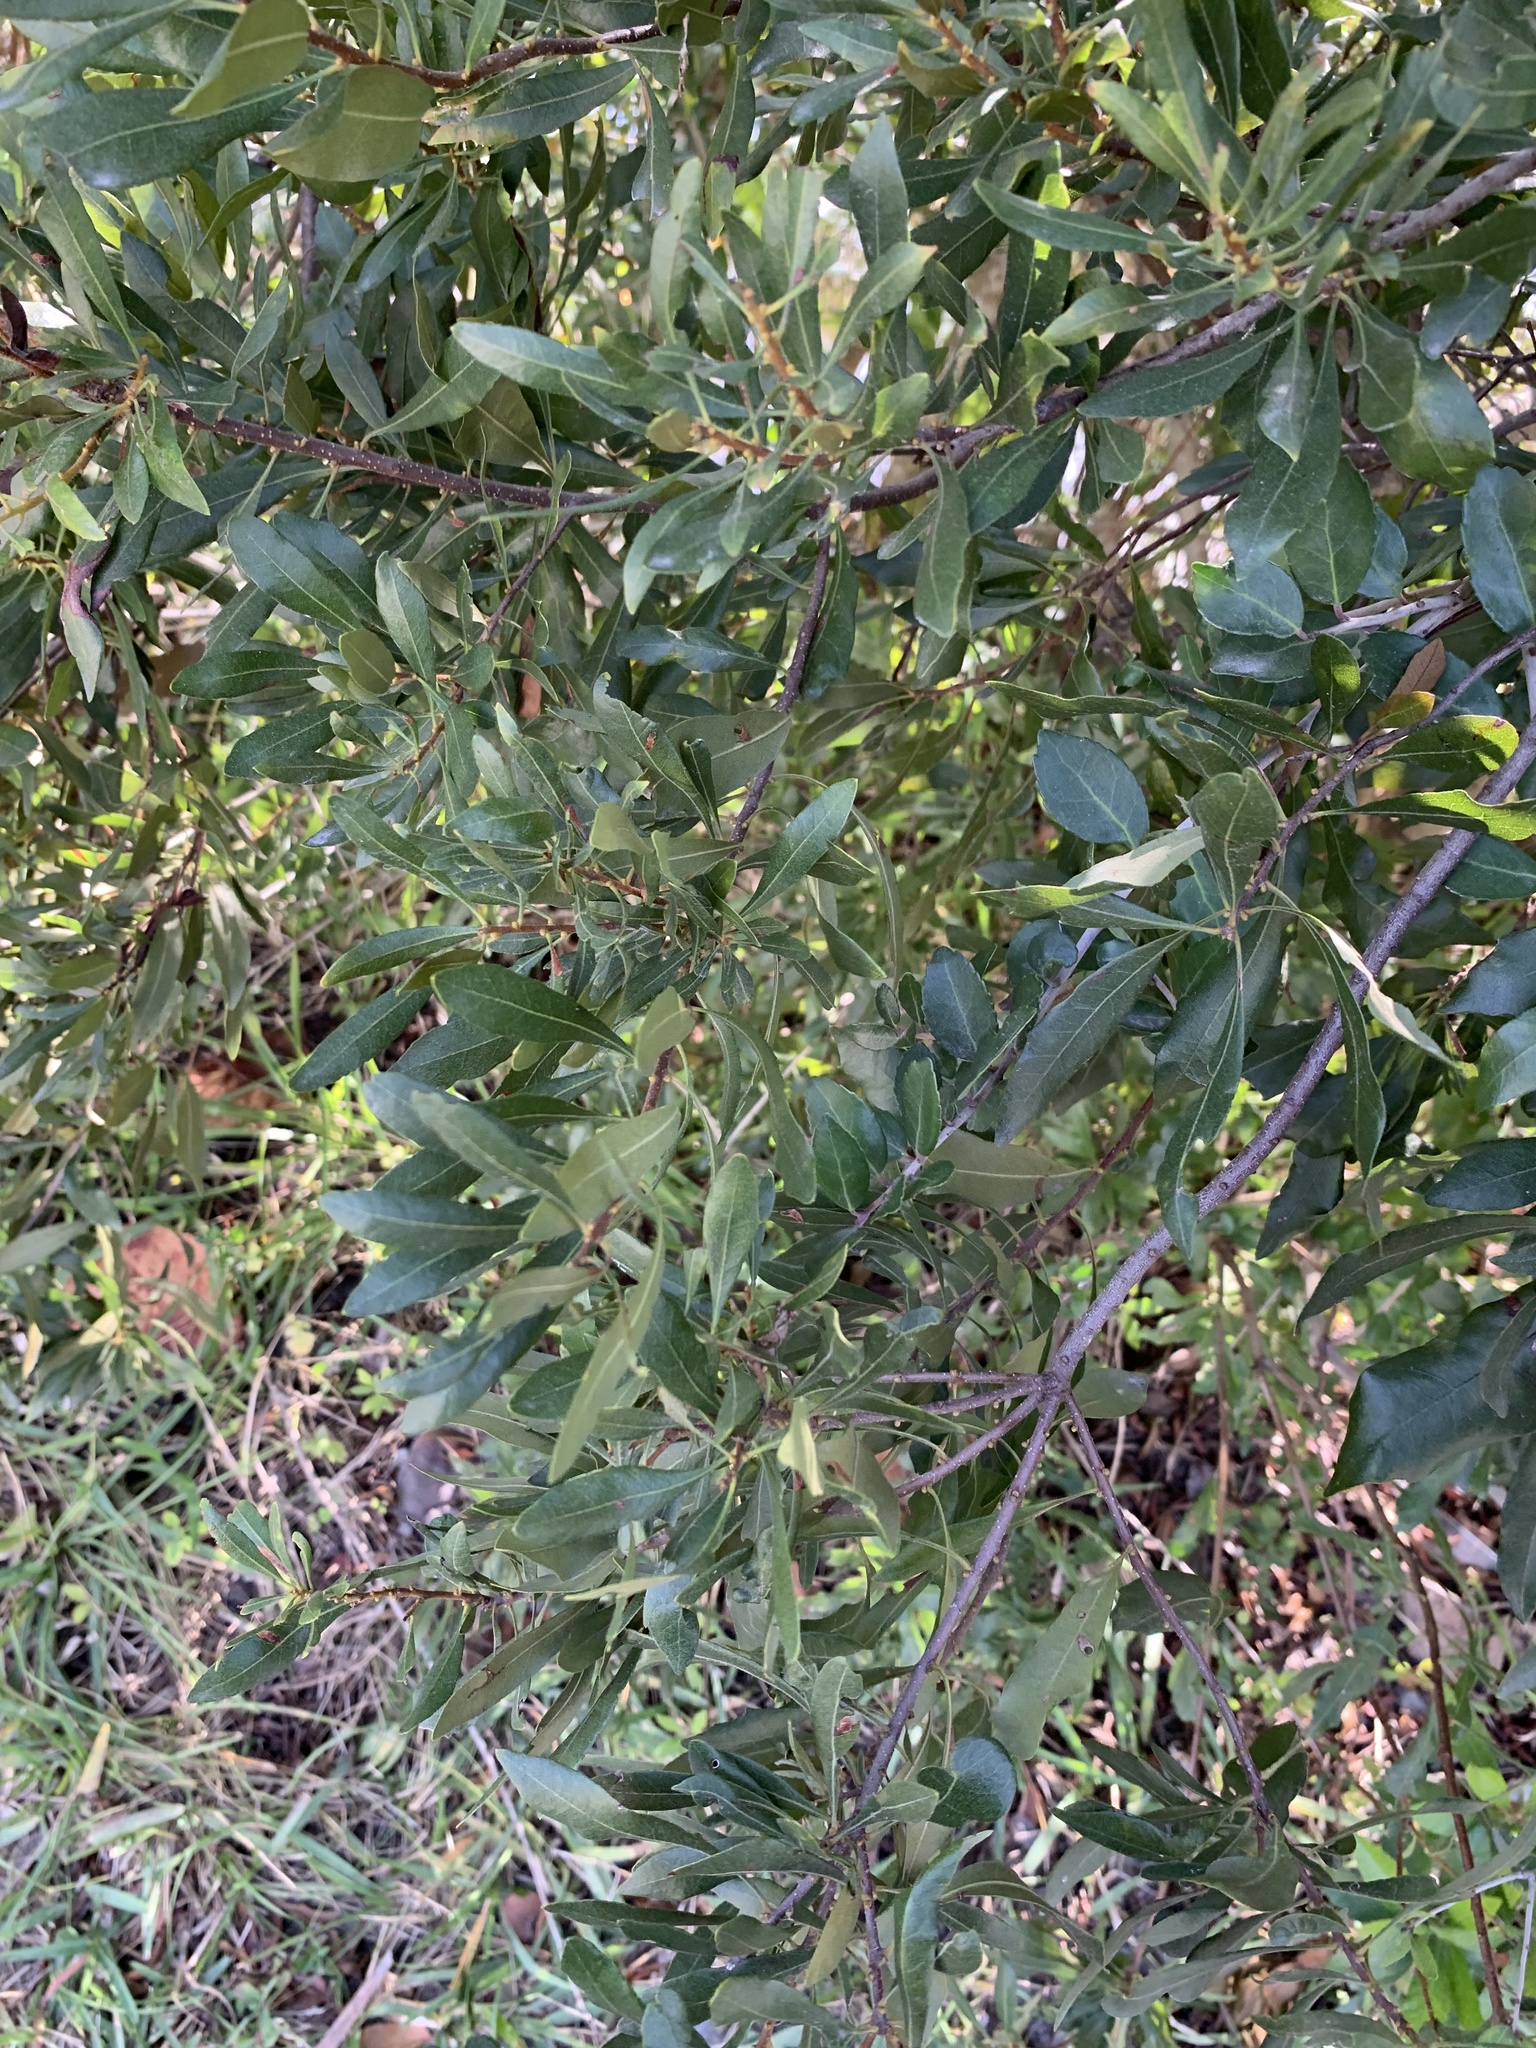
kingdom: Plantae
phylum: Tracheophyta
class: Magnoliopsida
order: Fagales
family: Myricaceae
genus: Morella
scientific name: Morella cerifera
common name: Wax myrtle
